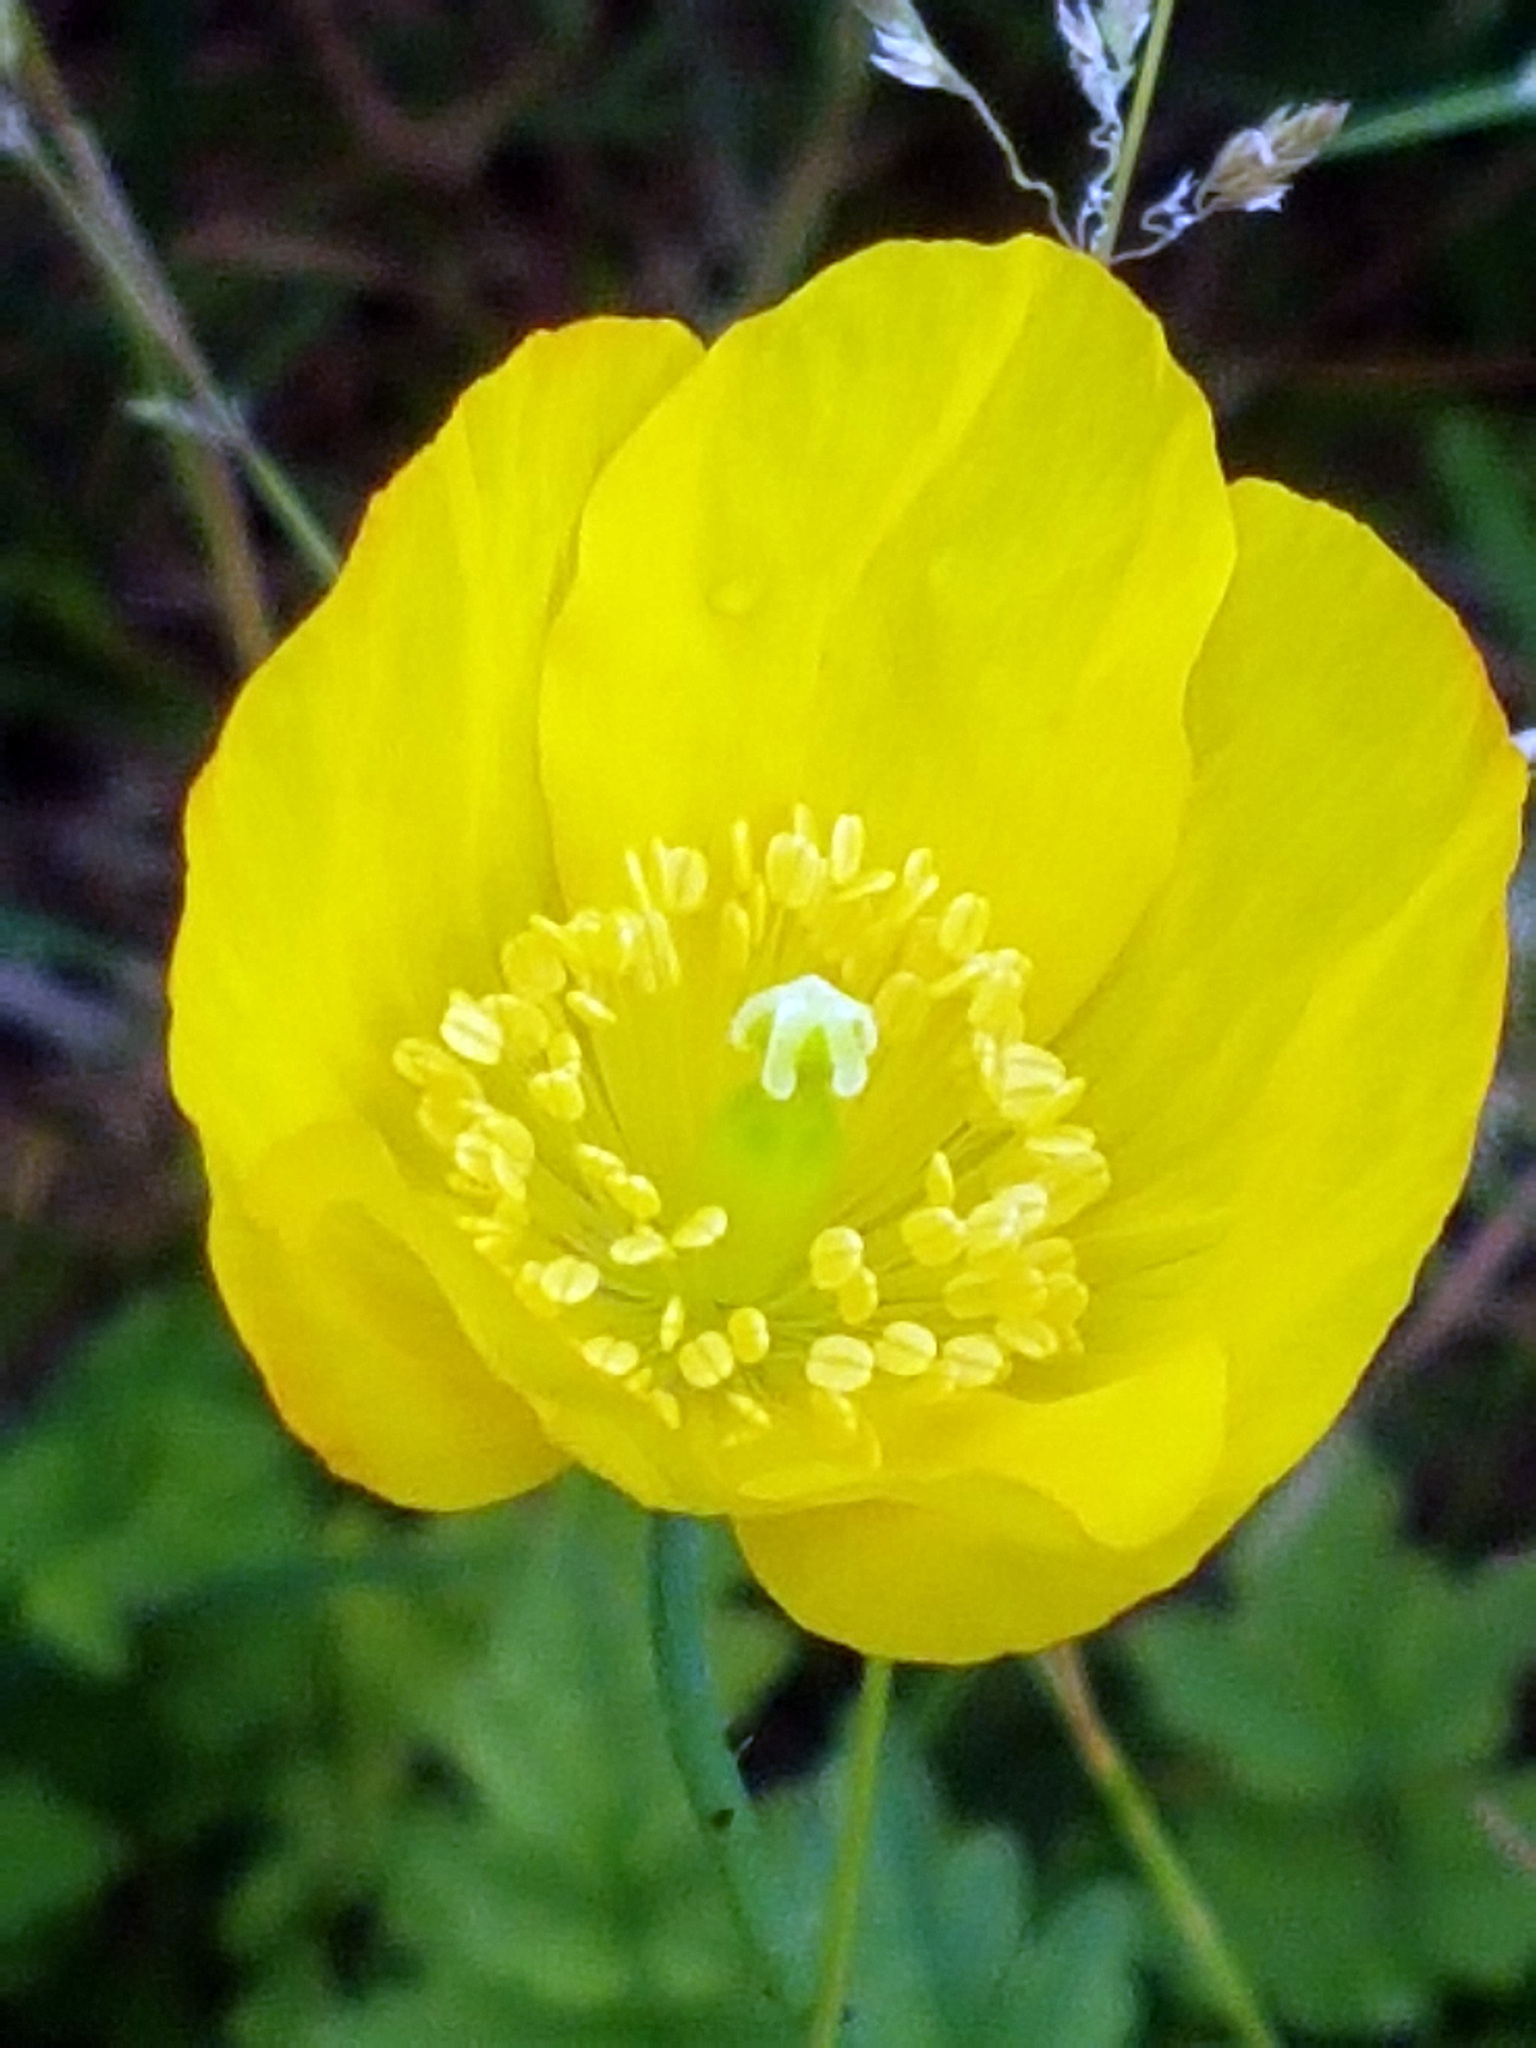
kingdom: Plantae
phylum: Tracheophyta
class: Magnoliopsida
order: Ranunculales
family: Papaveraceae
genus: Papaver
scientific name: Papaver cambricum
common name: Poppy
